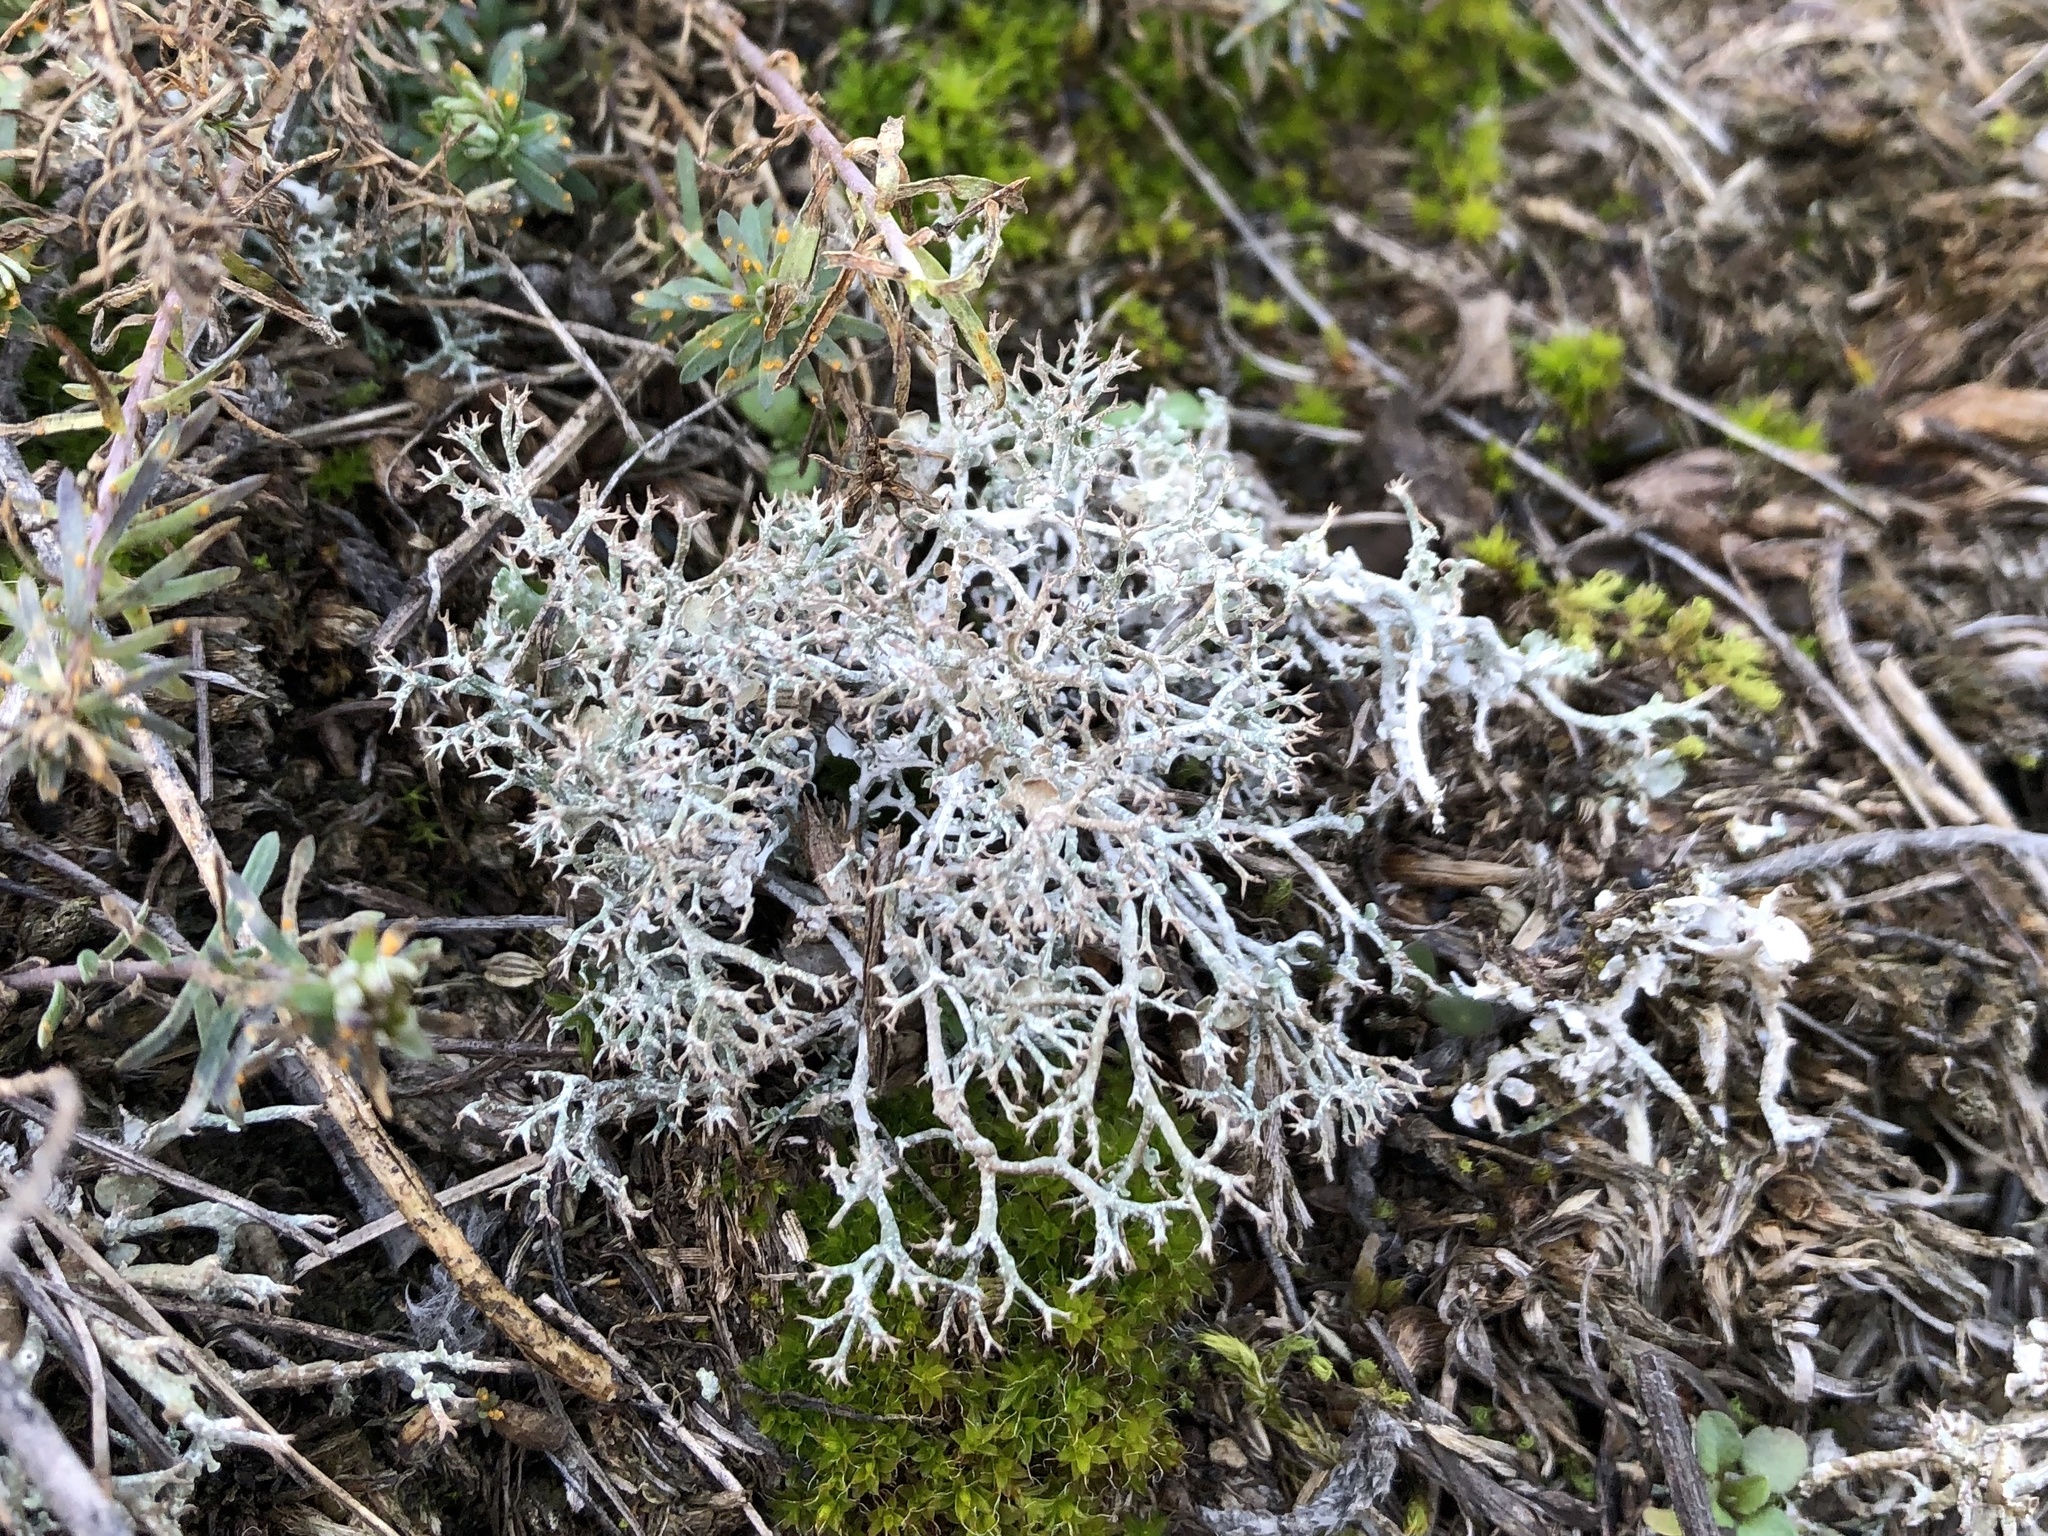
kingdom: Fungi
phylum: Ascomycota
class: Lecanoromycetes
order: Lecanorales
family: Cladoniaceae
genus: Cladonia
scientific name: Cladonia rangiformis
